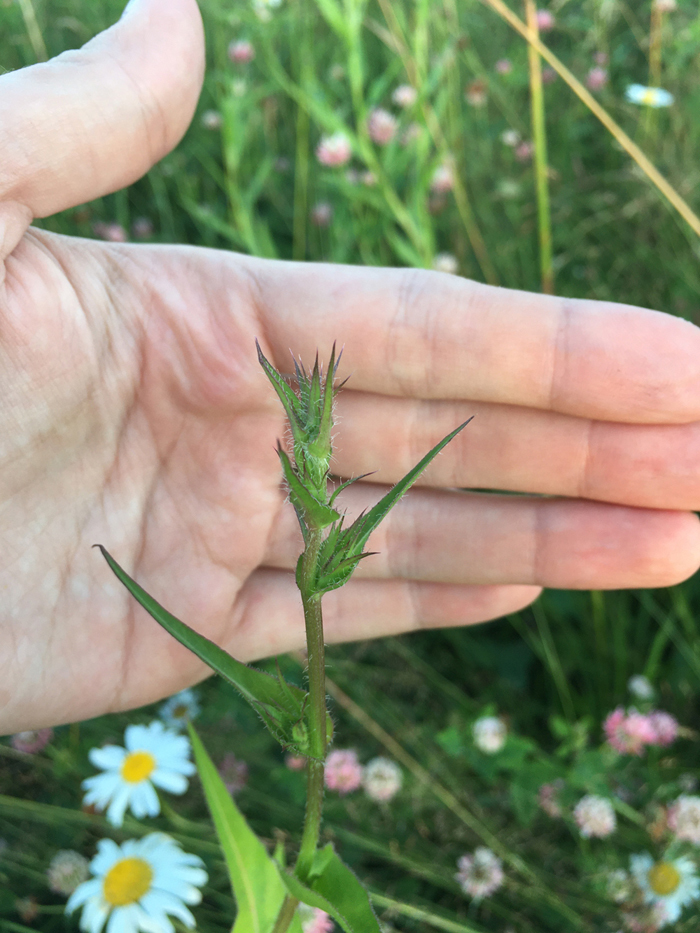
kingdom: Plantae
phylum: Tracheophyta
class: Magnoliopsida
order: Asterales
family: Asteraceae
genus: Cichorium
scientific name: Cichorium intybus
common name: Chicory
